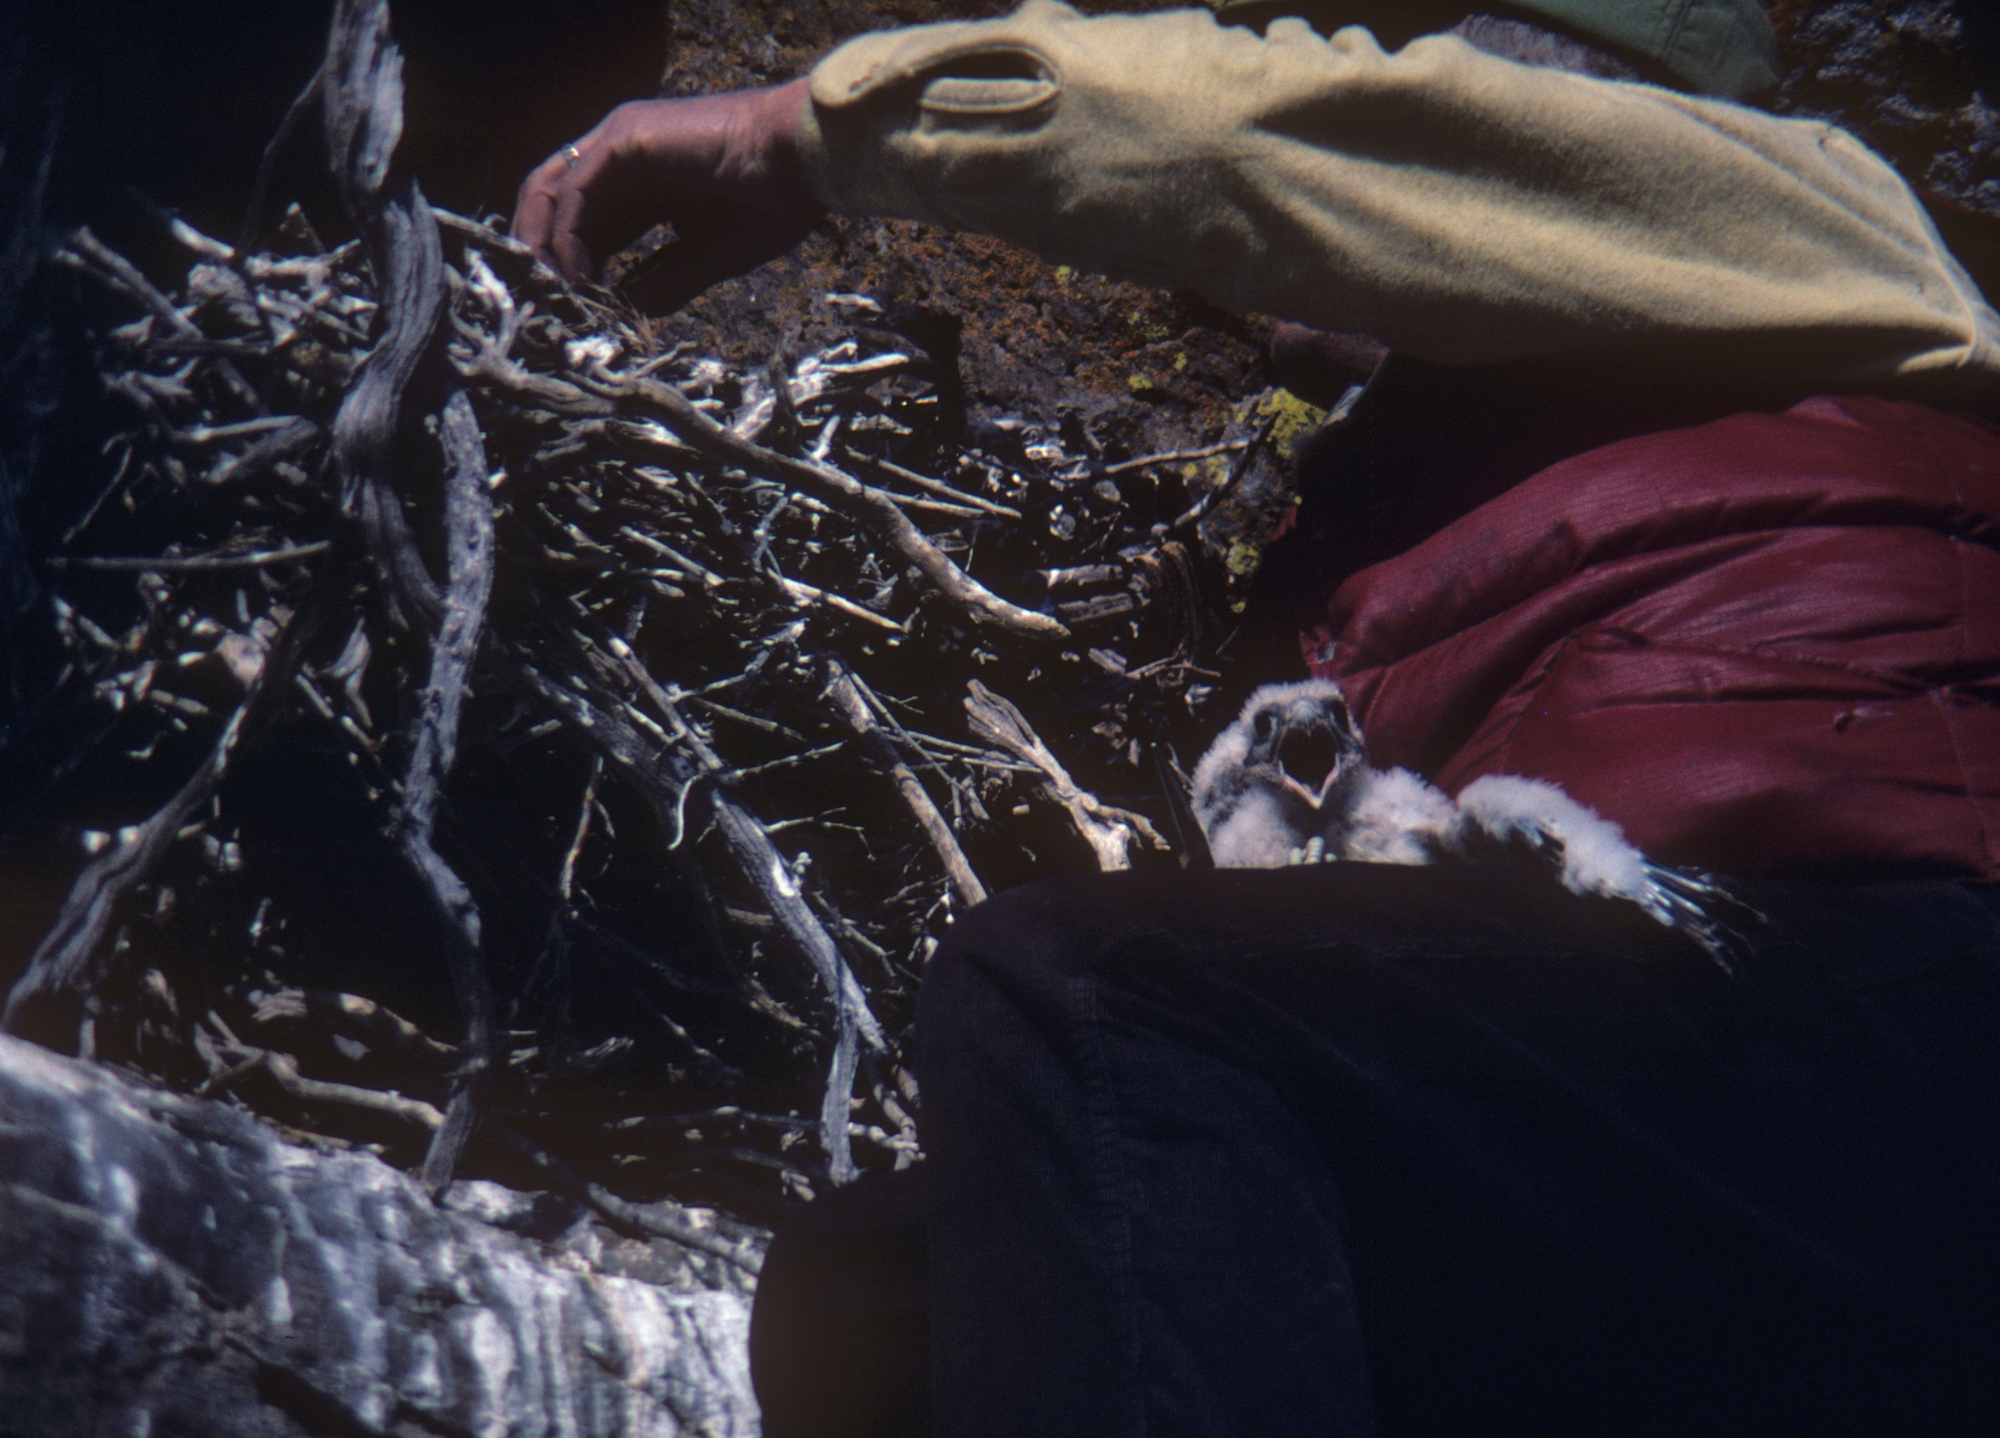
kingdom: Animalia
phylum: Chordata
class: Aves
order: Falconiformes
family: Falconidae
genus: Falco
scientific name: Falco mexicanus
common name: Prairie falcon
